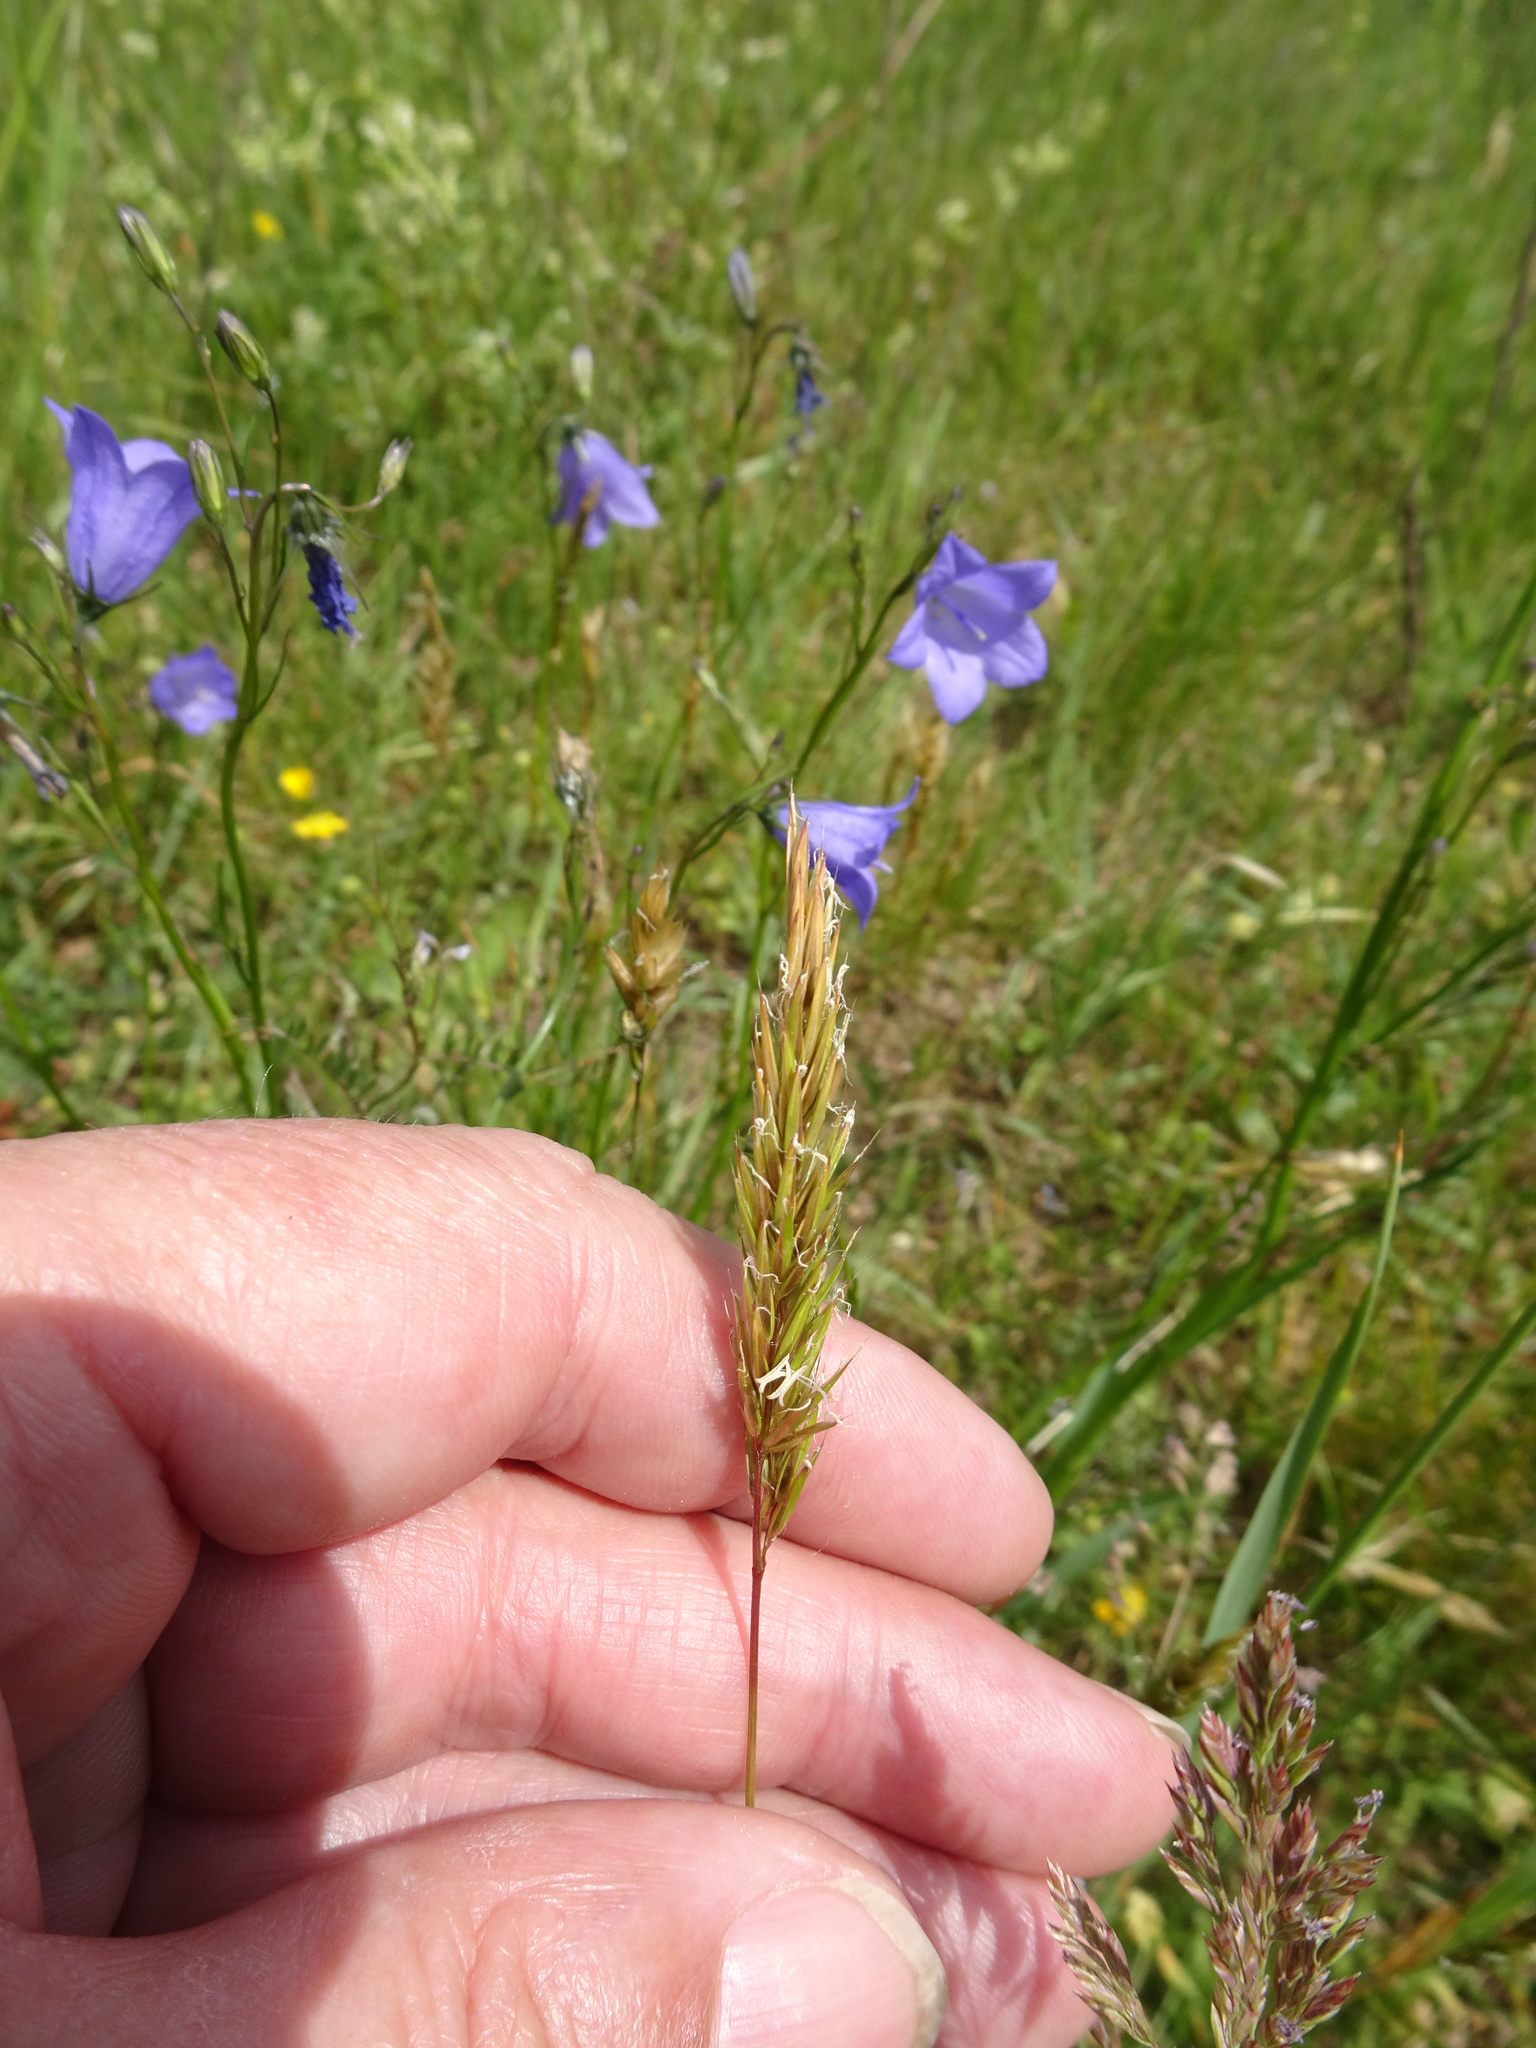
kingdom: Plantae
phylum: Tracheophyta
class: Liliopsida
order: Poales
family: Poaceae
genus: Anthoxanthum
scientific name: Anthoxanthum odoratum
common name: Sweet vernalgrass
